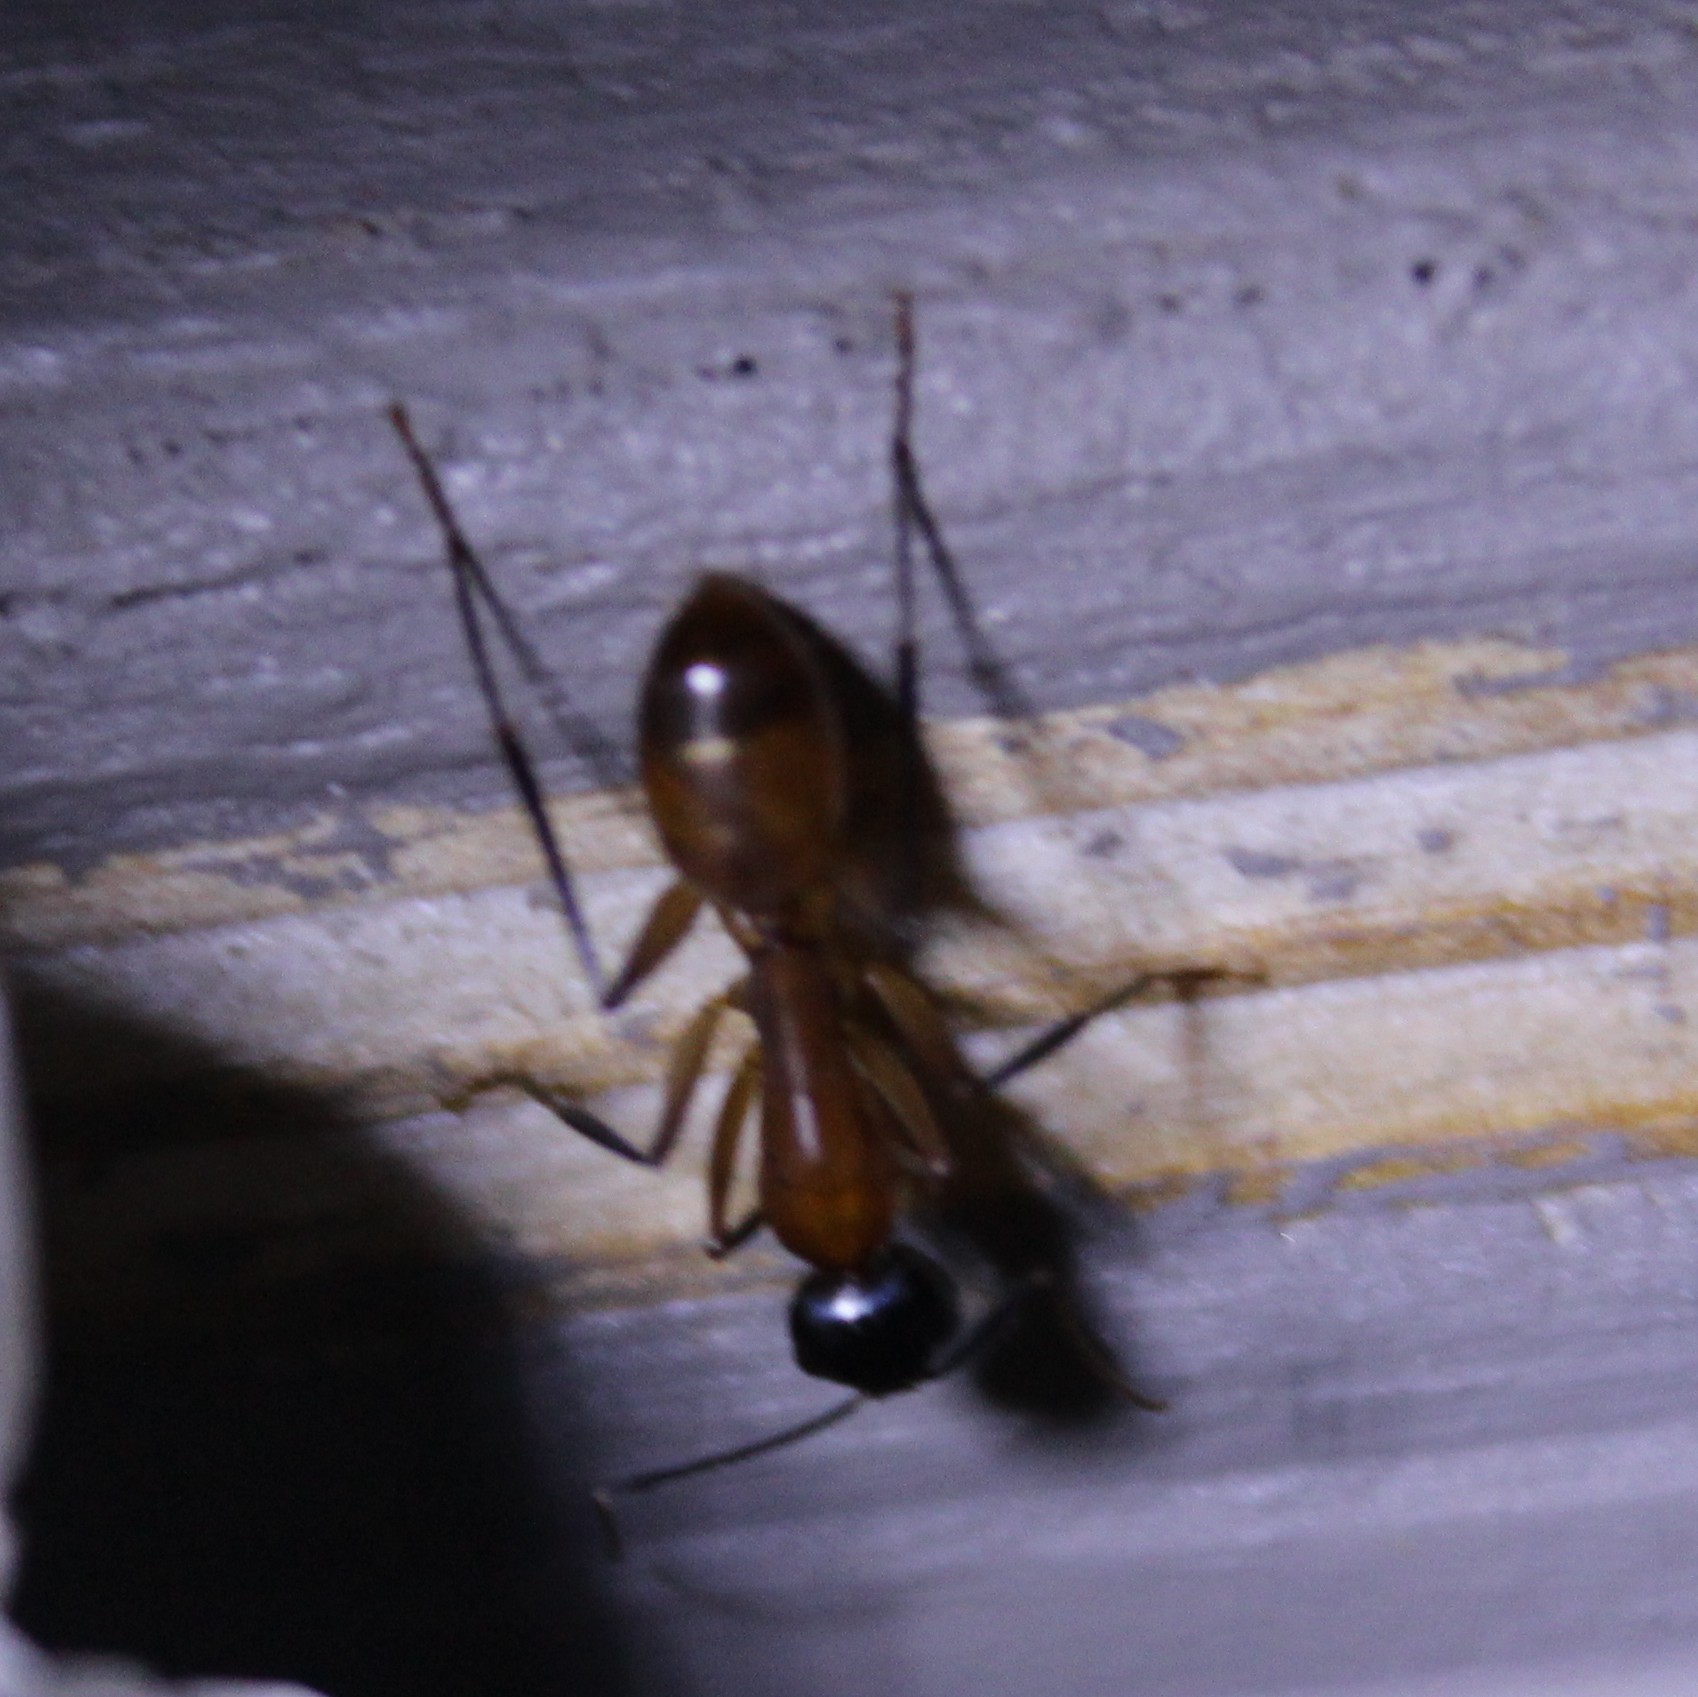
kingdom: Animalia
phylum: Arthropoda
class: Insecta
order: Hymenoptera
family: Formicidae
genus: Camponotus
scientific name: Camponotus ocreatus
